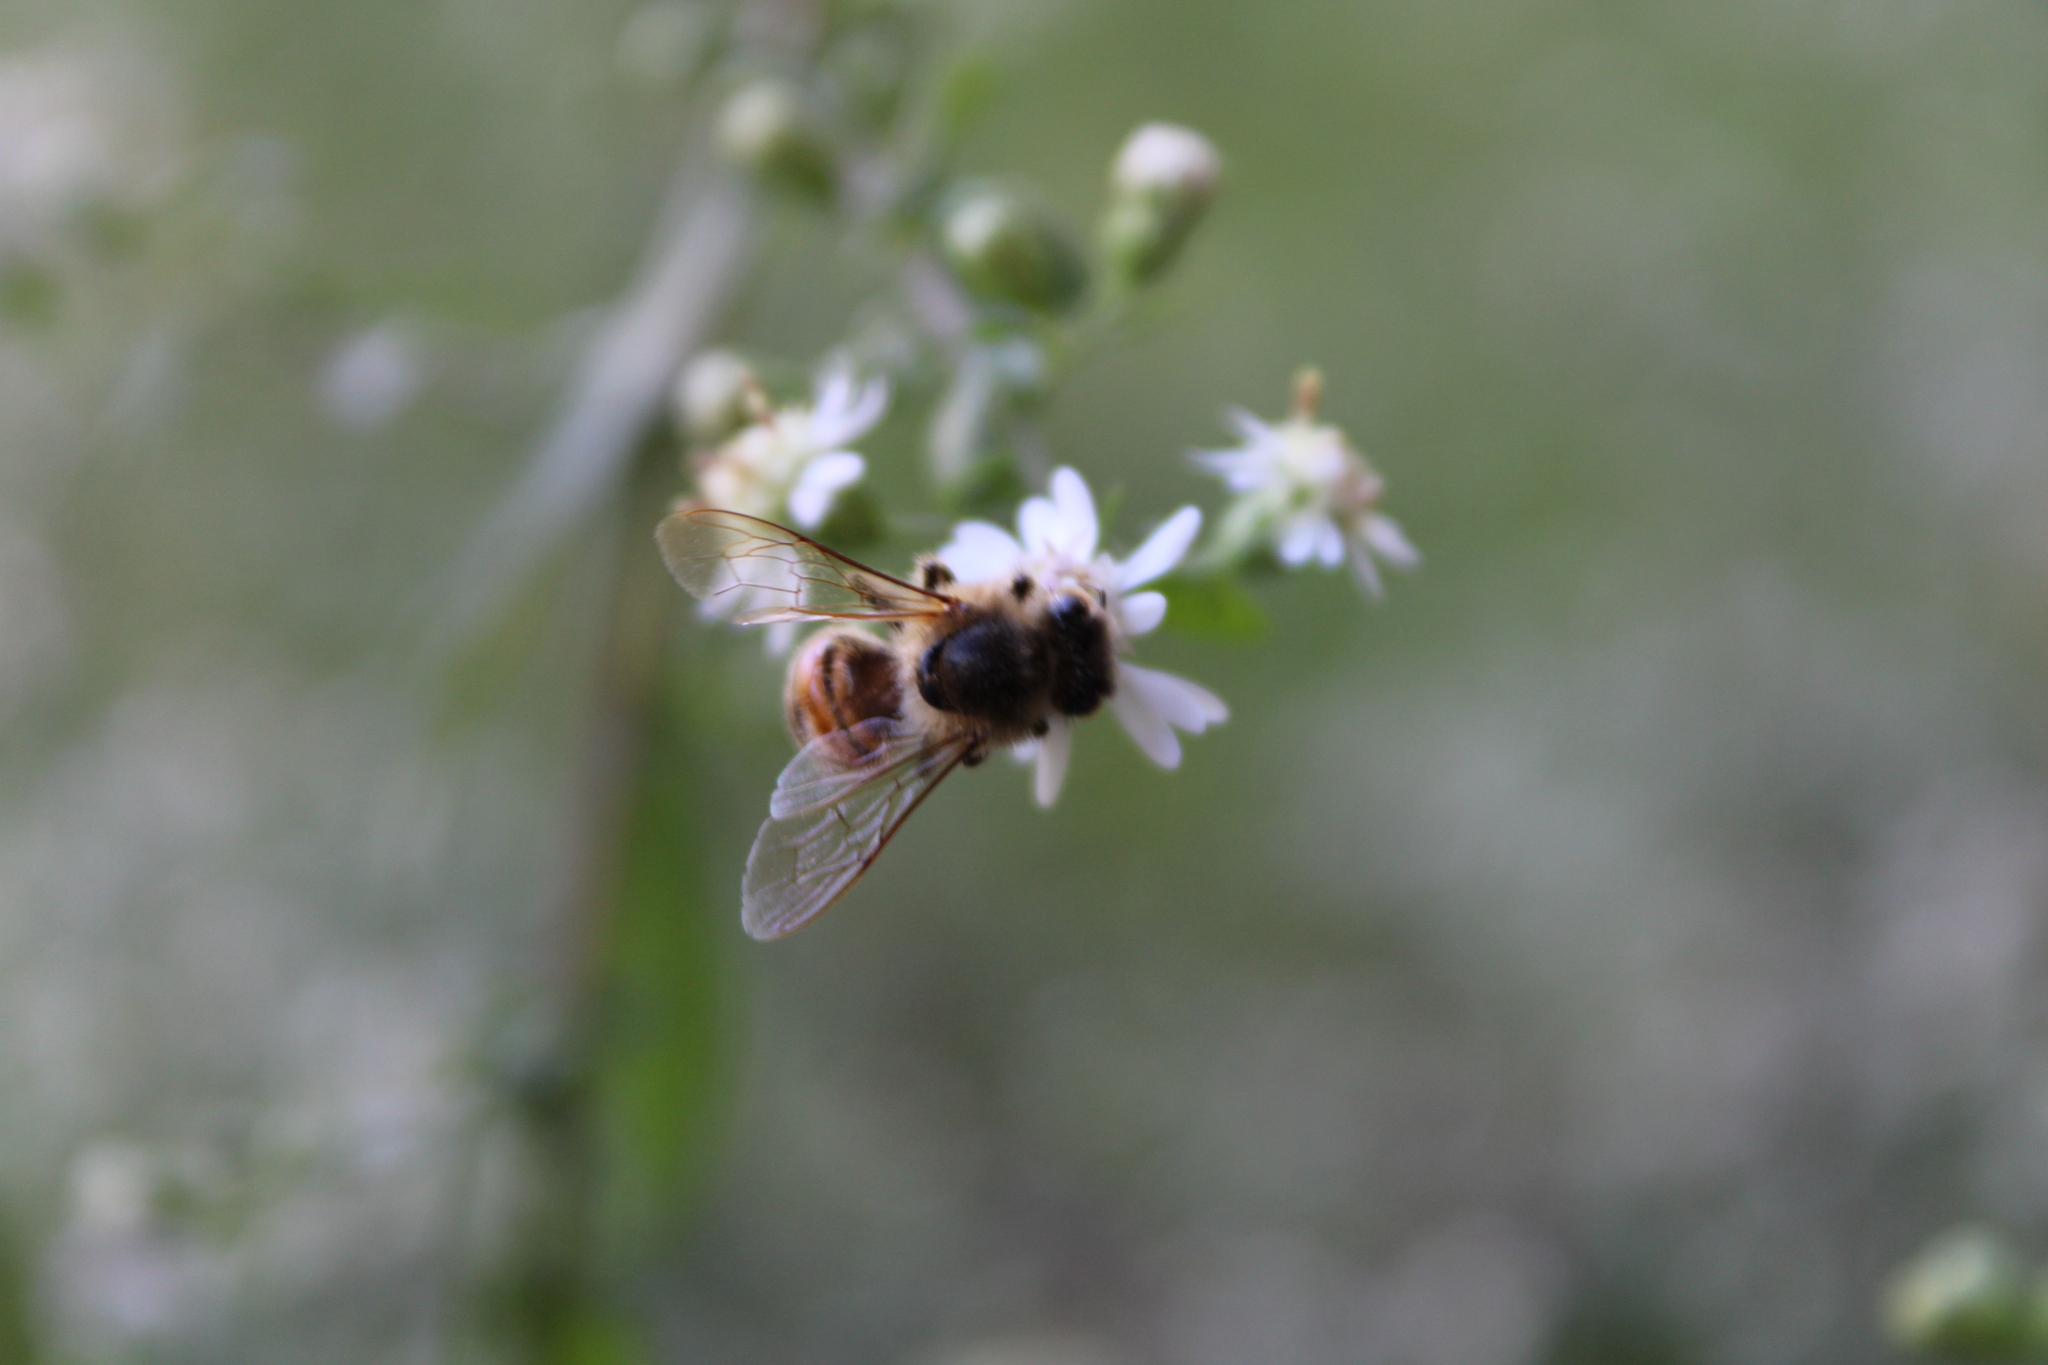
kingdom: Animalia
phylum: Arthropoda
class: Insecta
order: Hymenoptera
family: Apidae
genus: Apis
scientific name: Apis mellifera
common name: Honey bee
